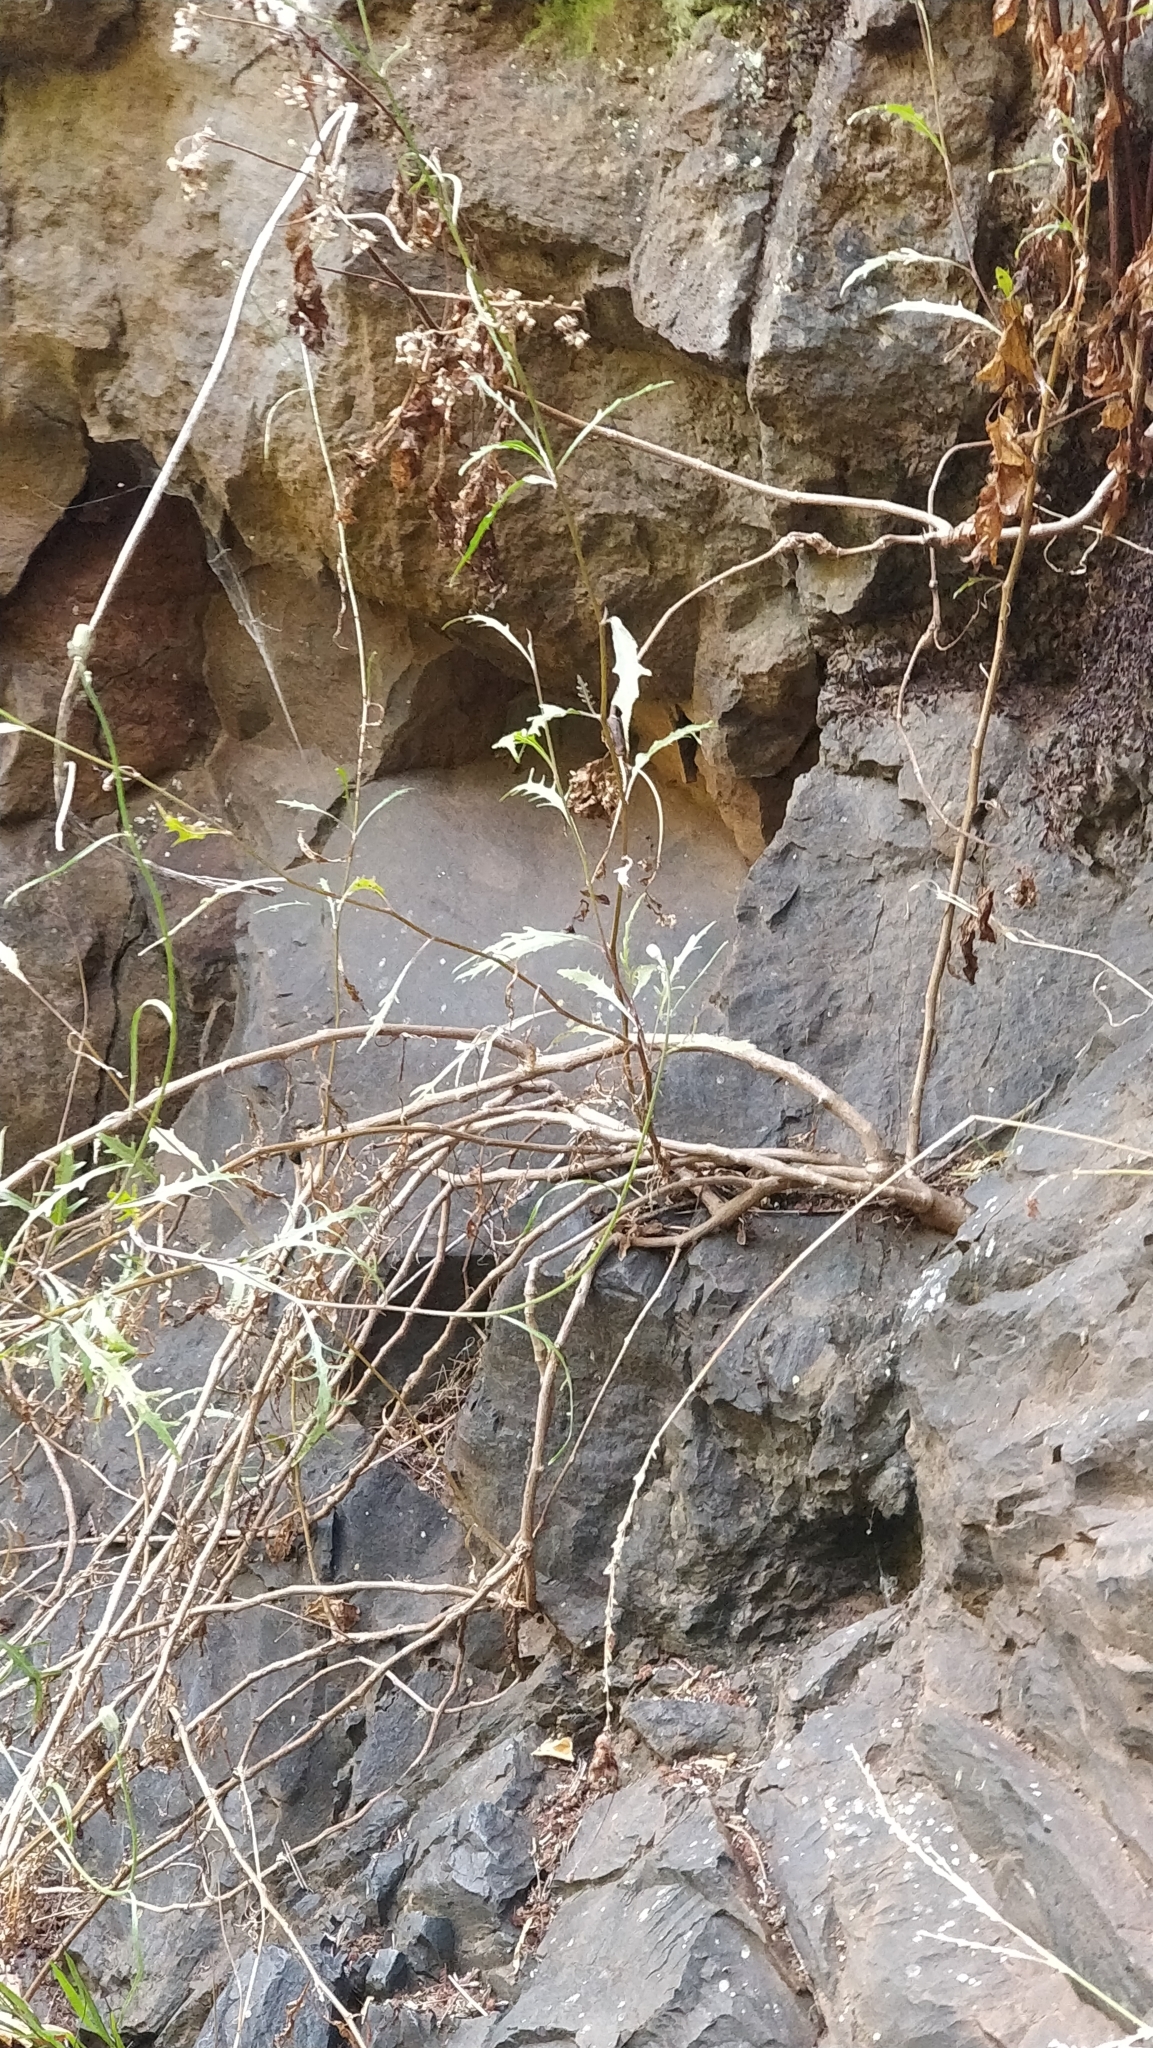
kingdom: Plantae
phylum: Tracheophyta
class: Magnoliopsida
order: Asterales
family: Asteraceae
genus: Tolpis
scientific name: Tolpis succulenta
